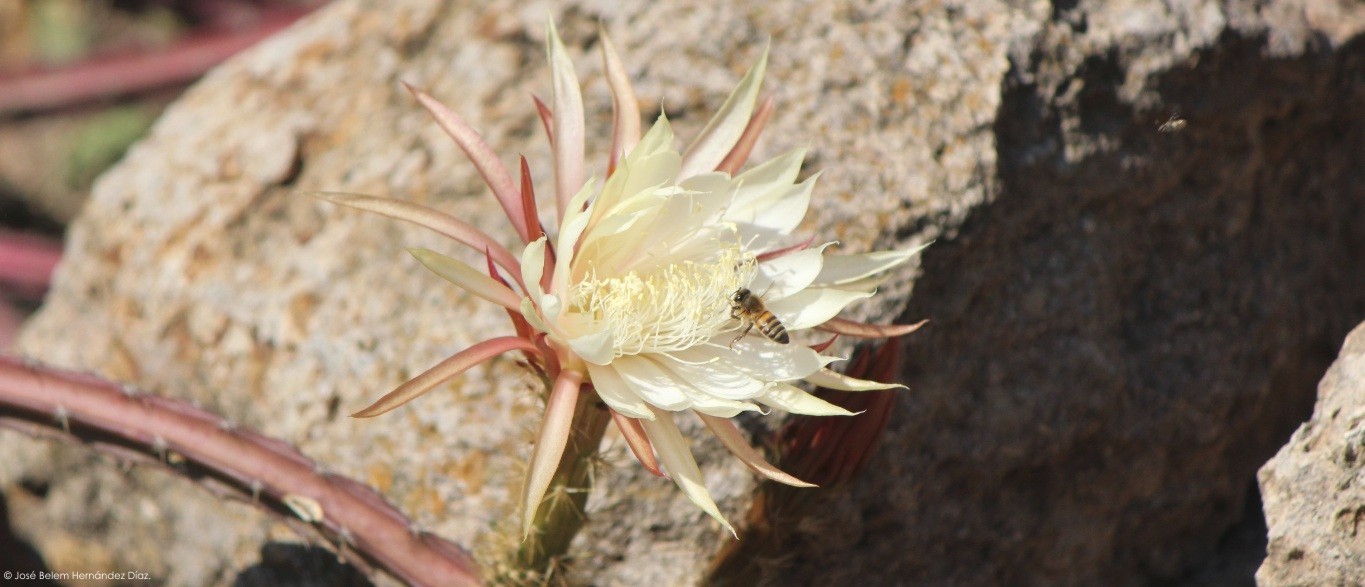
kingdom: Animalia
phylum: Arthropoda
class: Insecta
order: Hymenoptera
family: Apidae
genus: Apis
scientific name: Apis mellifera
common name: Honey bee
